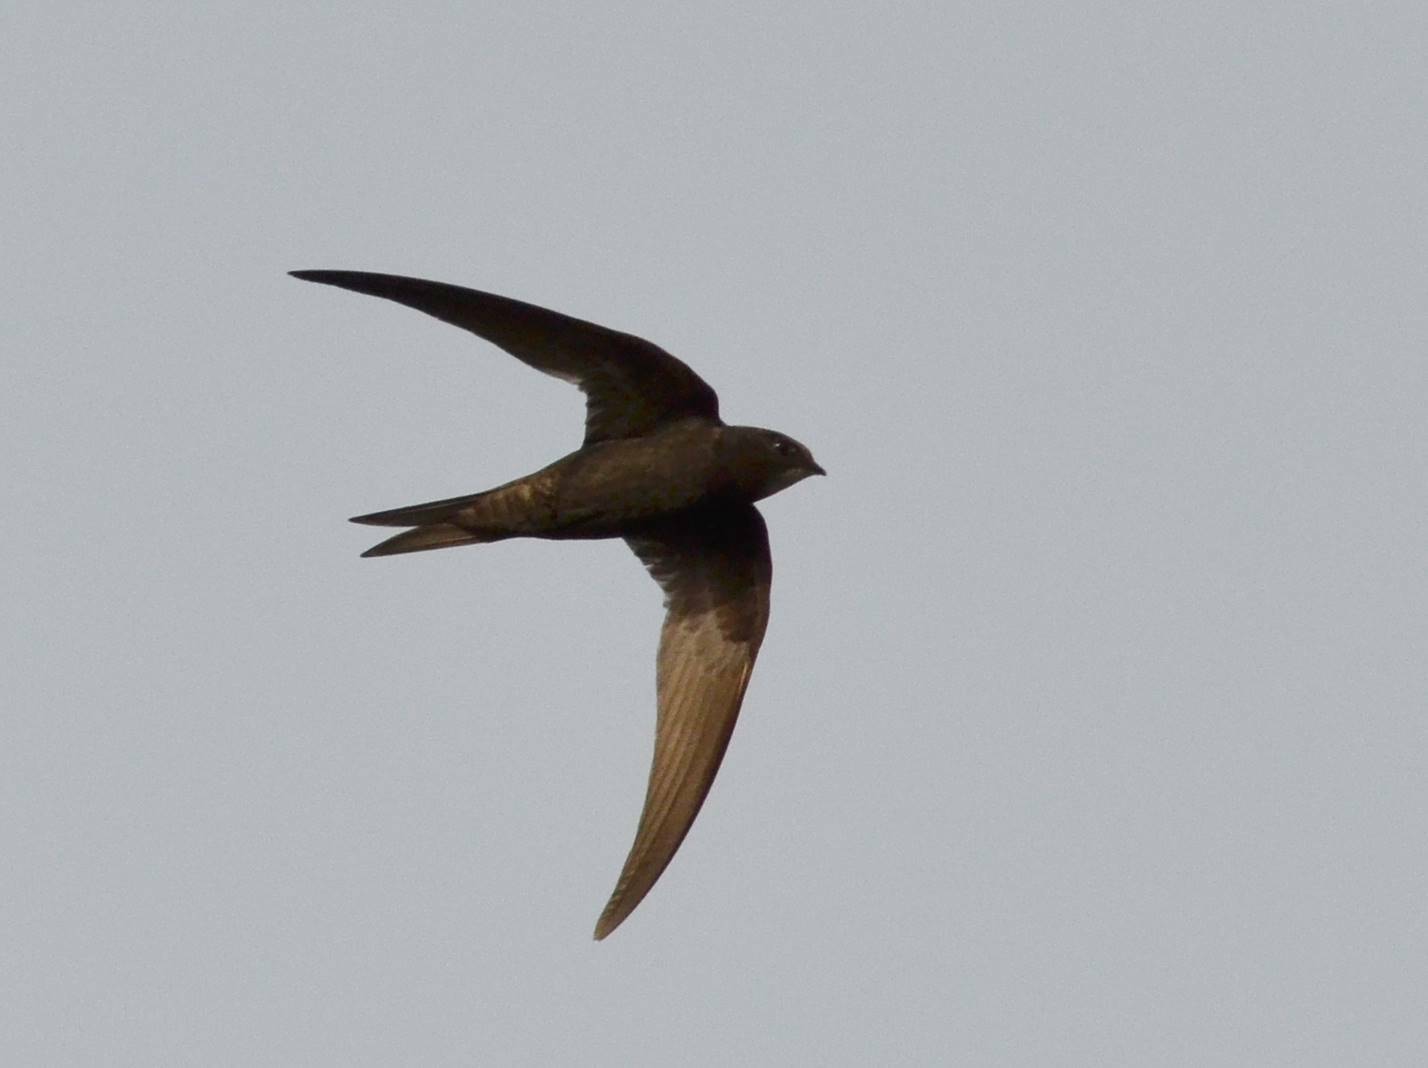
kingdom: Animalia
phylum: Chordata
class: Aves
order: Apodiformes
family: Apodidae
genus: Apus
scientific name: Apus apus
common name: Common swift
